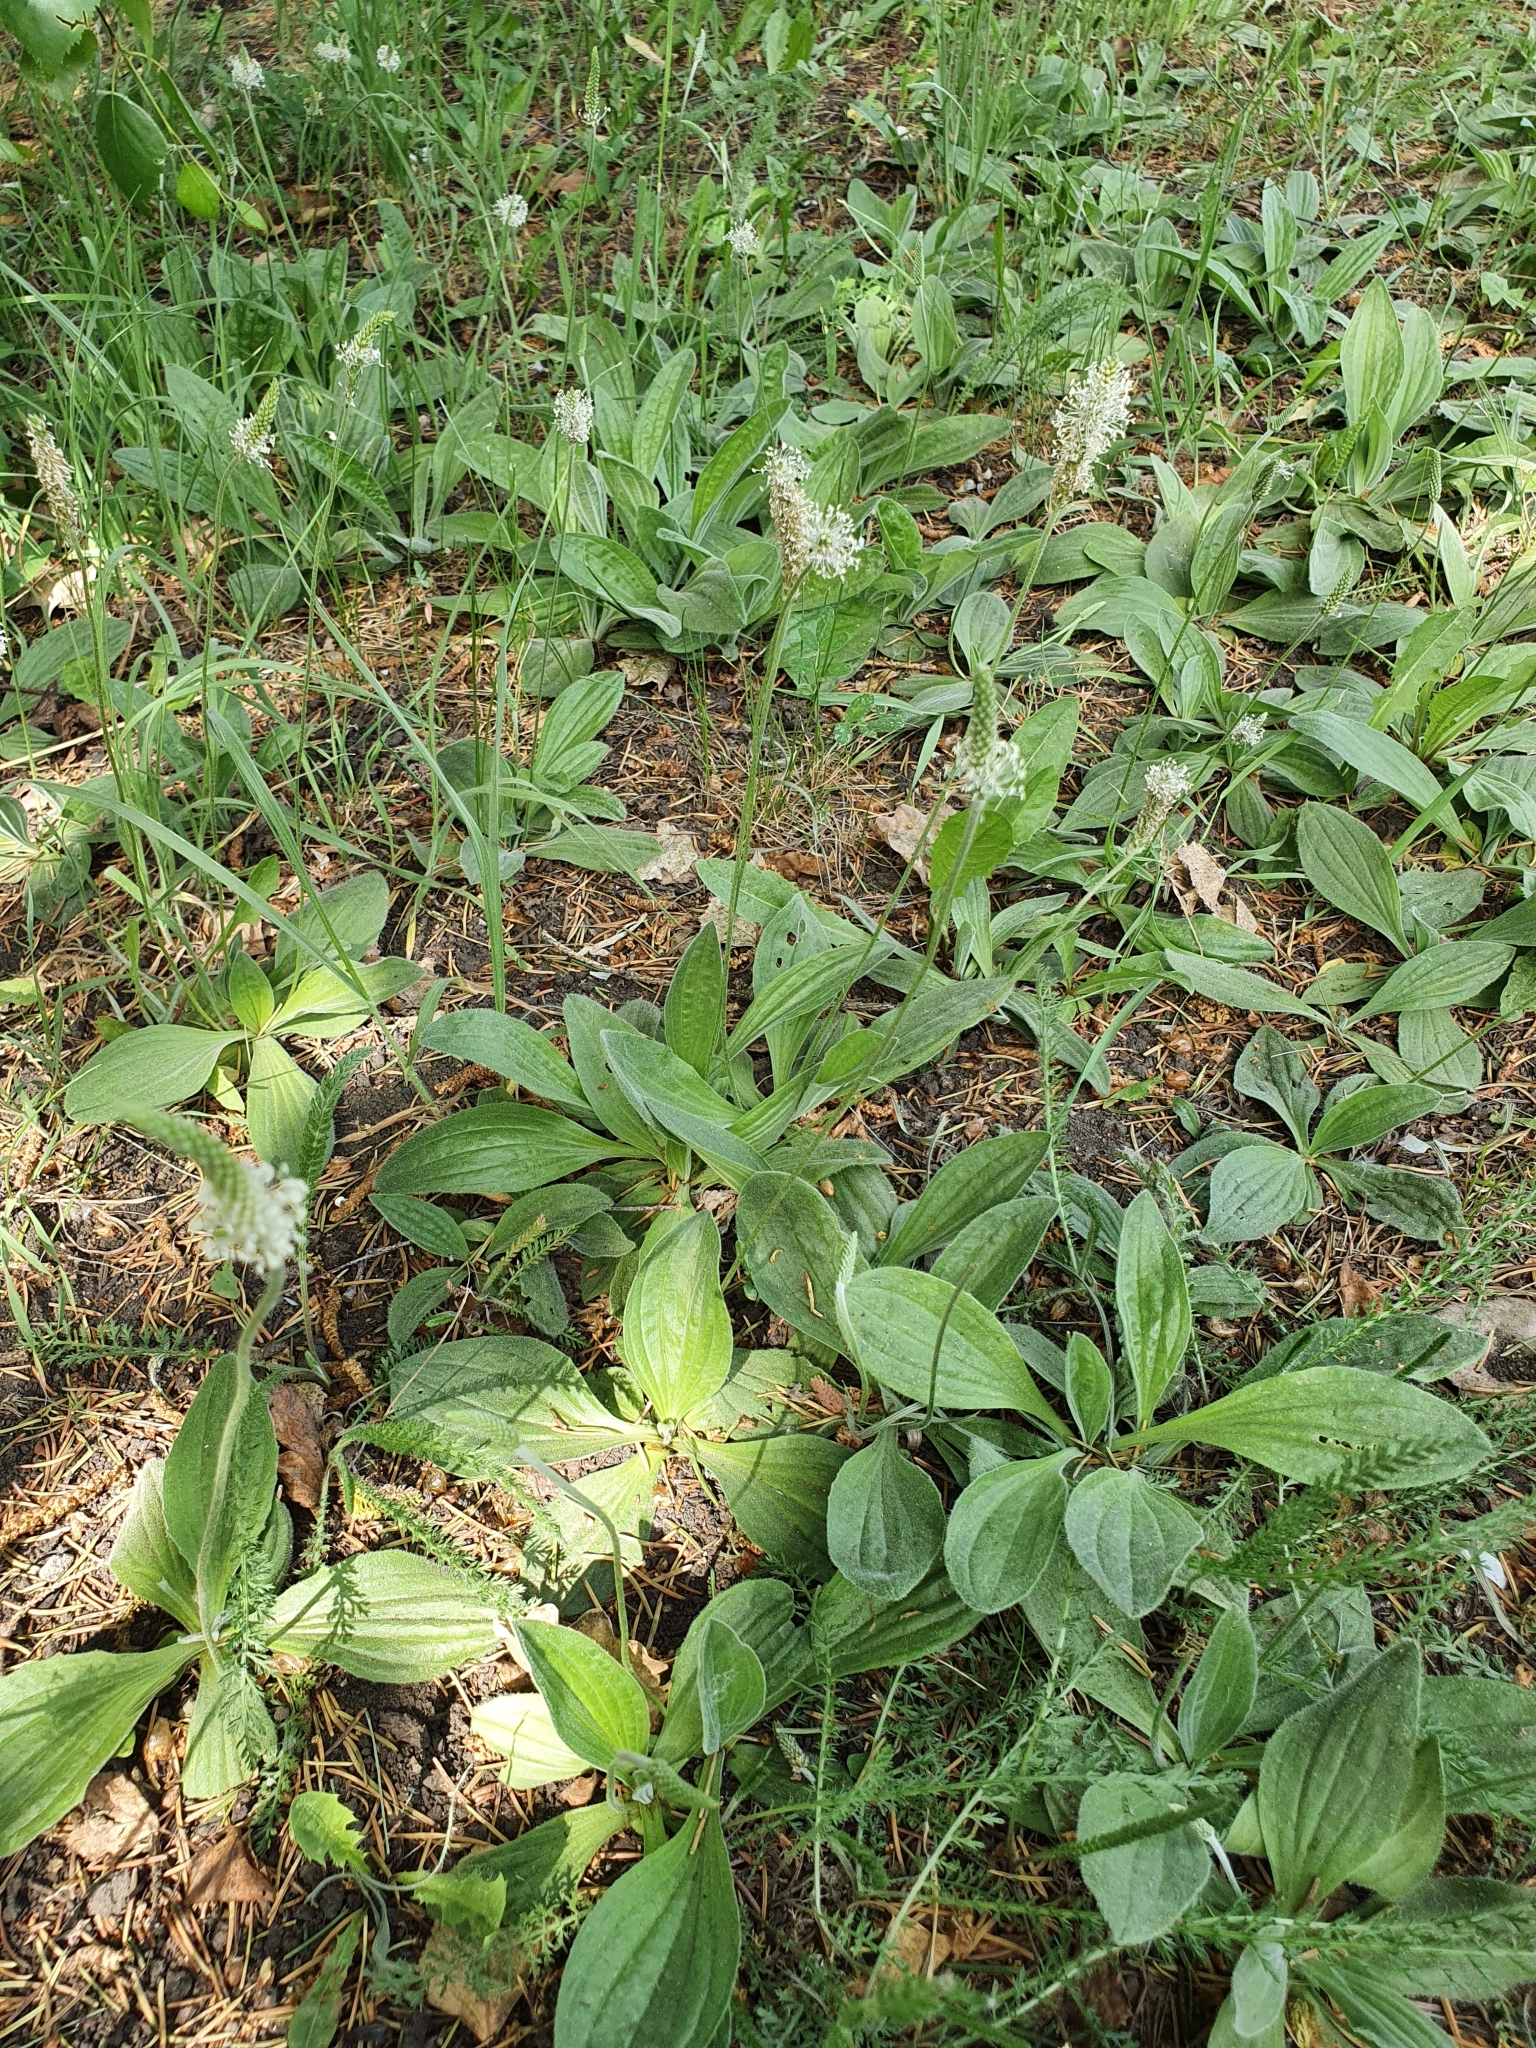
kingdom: Plantae
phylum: Tracheophyta
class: Magnoliopsida
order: Lamiales
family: Plantaginaceae
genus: Plantago
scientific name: Plantago media
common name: Hoary plantain
